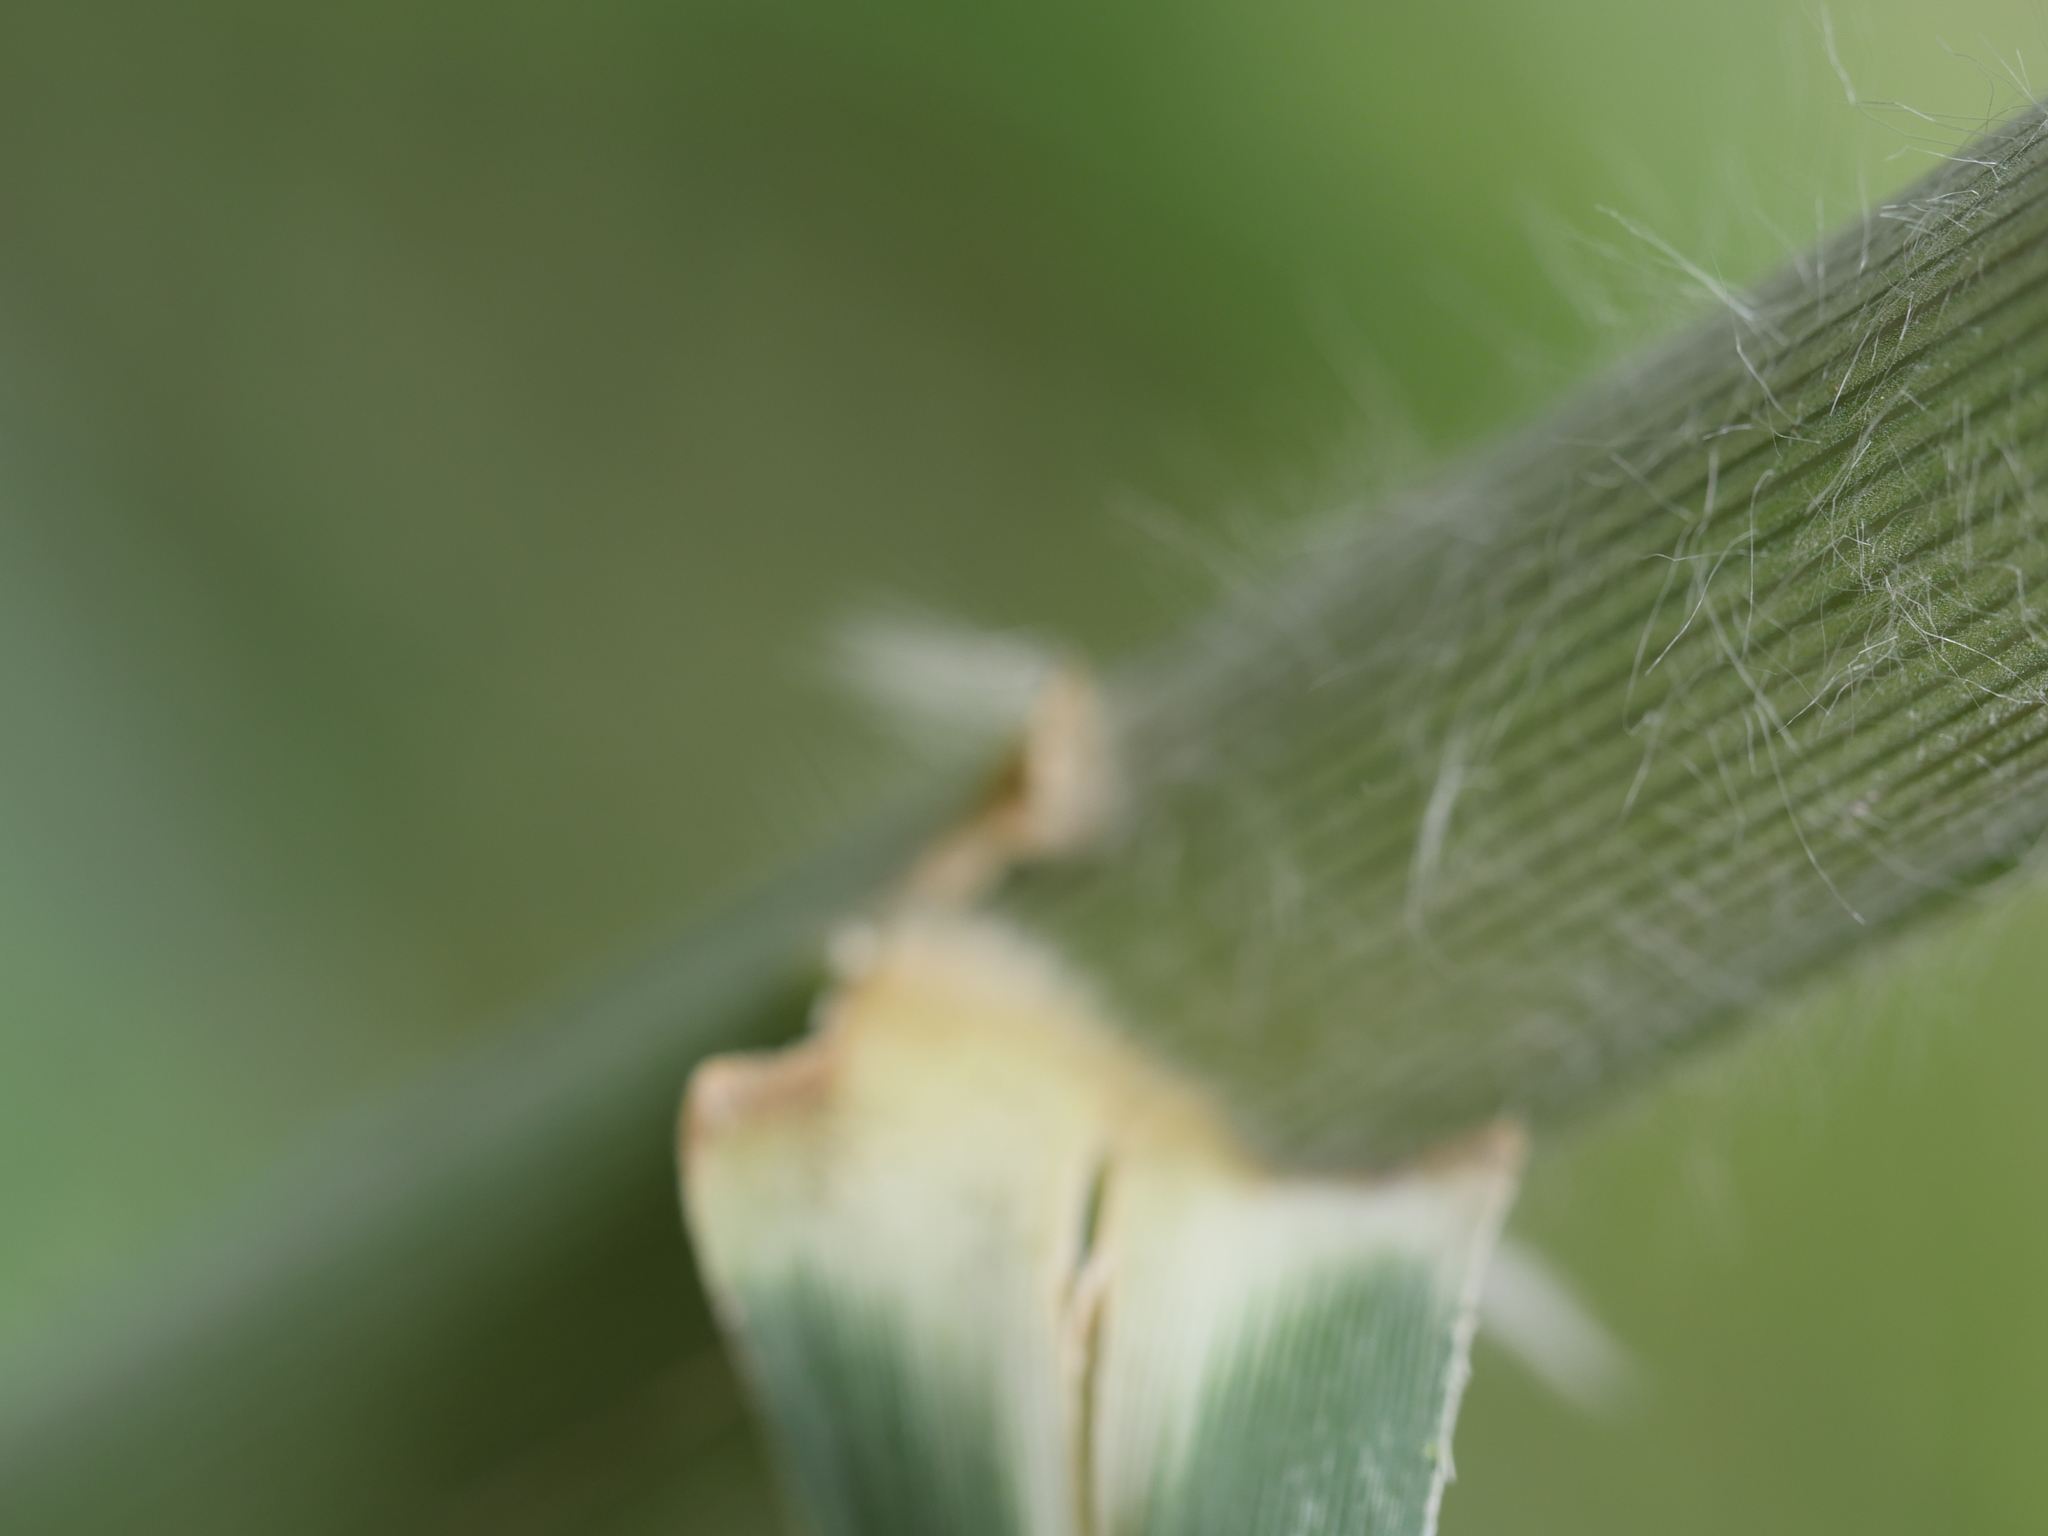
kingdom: Plantae
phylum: Tracheophyta
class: Liliopsida
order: Poales
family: Poaceae
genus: Cortaderia
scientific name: Cortaderia jubata
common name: Purple pampas grass
